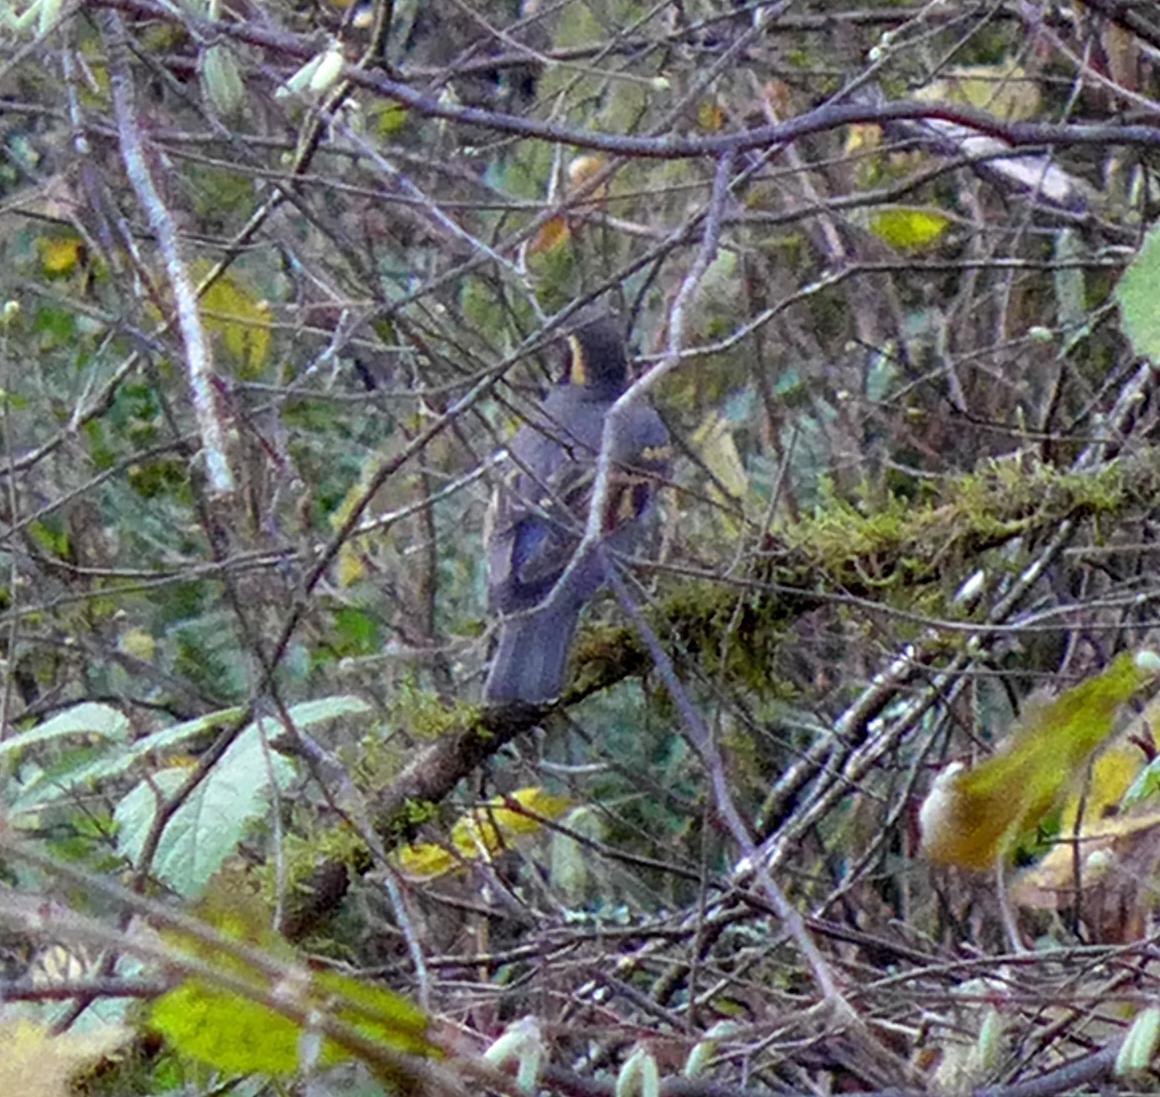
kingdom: Animalia
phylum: Chordata
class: Aves
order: Passeriformes
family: Turdidae
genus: Ixoreus
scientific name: Ixoreus naevius
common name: Varied thrush
